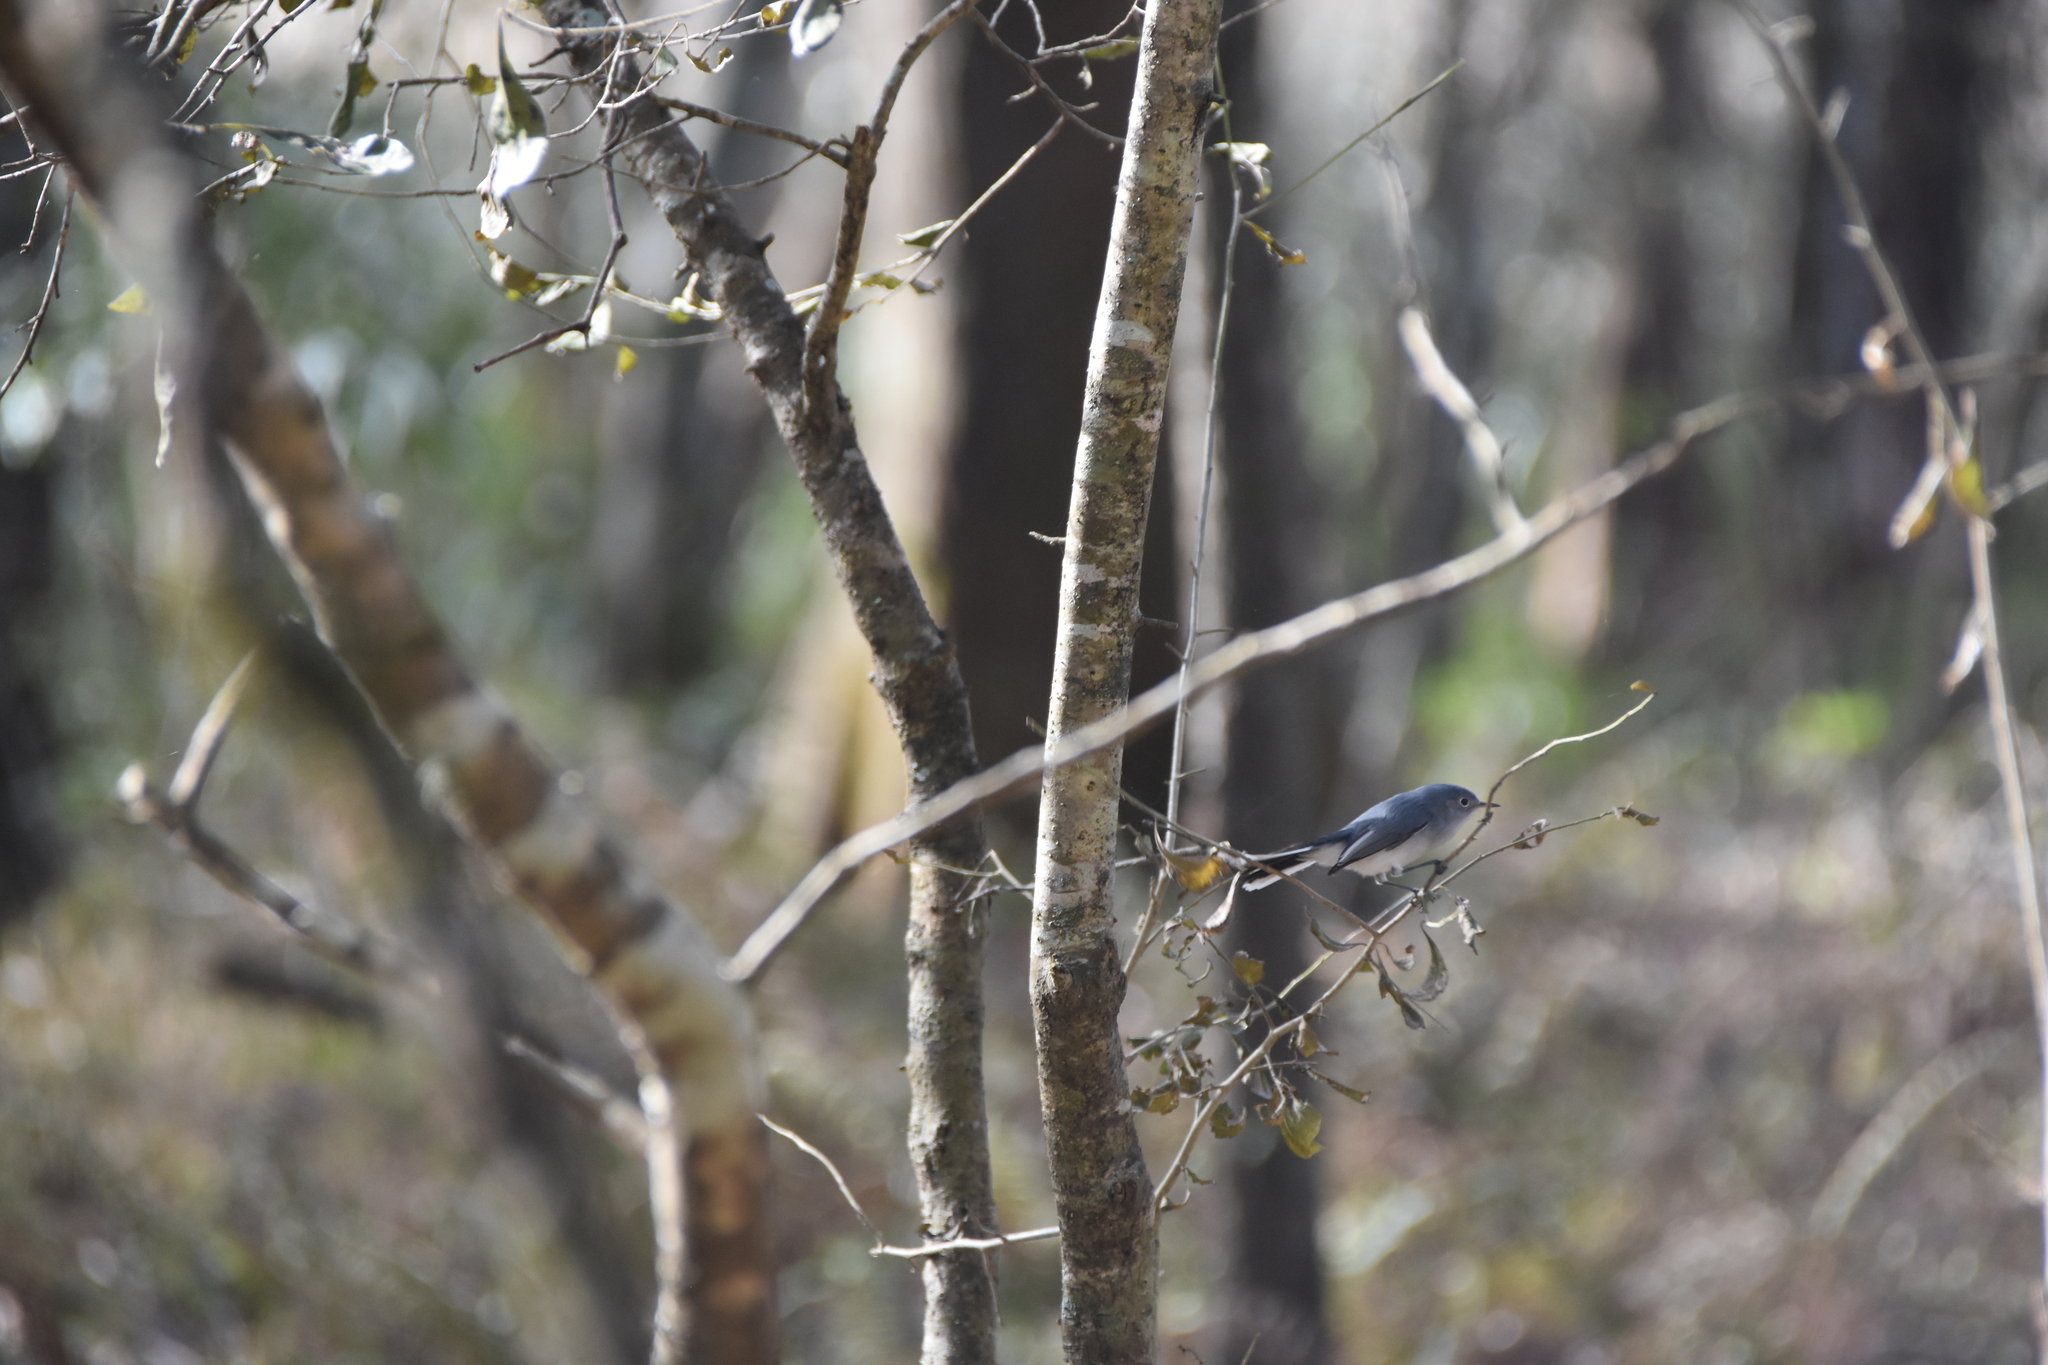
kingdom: Animalia
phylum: Chordata
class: Aves
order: Passeriformes
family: Polioptilidae
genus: Polioptila
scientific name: Polioptila caerulea
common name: Blue-gray gnatcatcher
